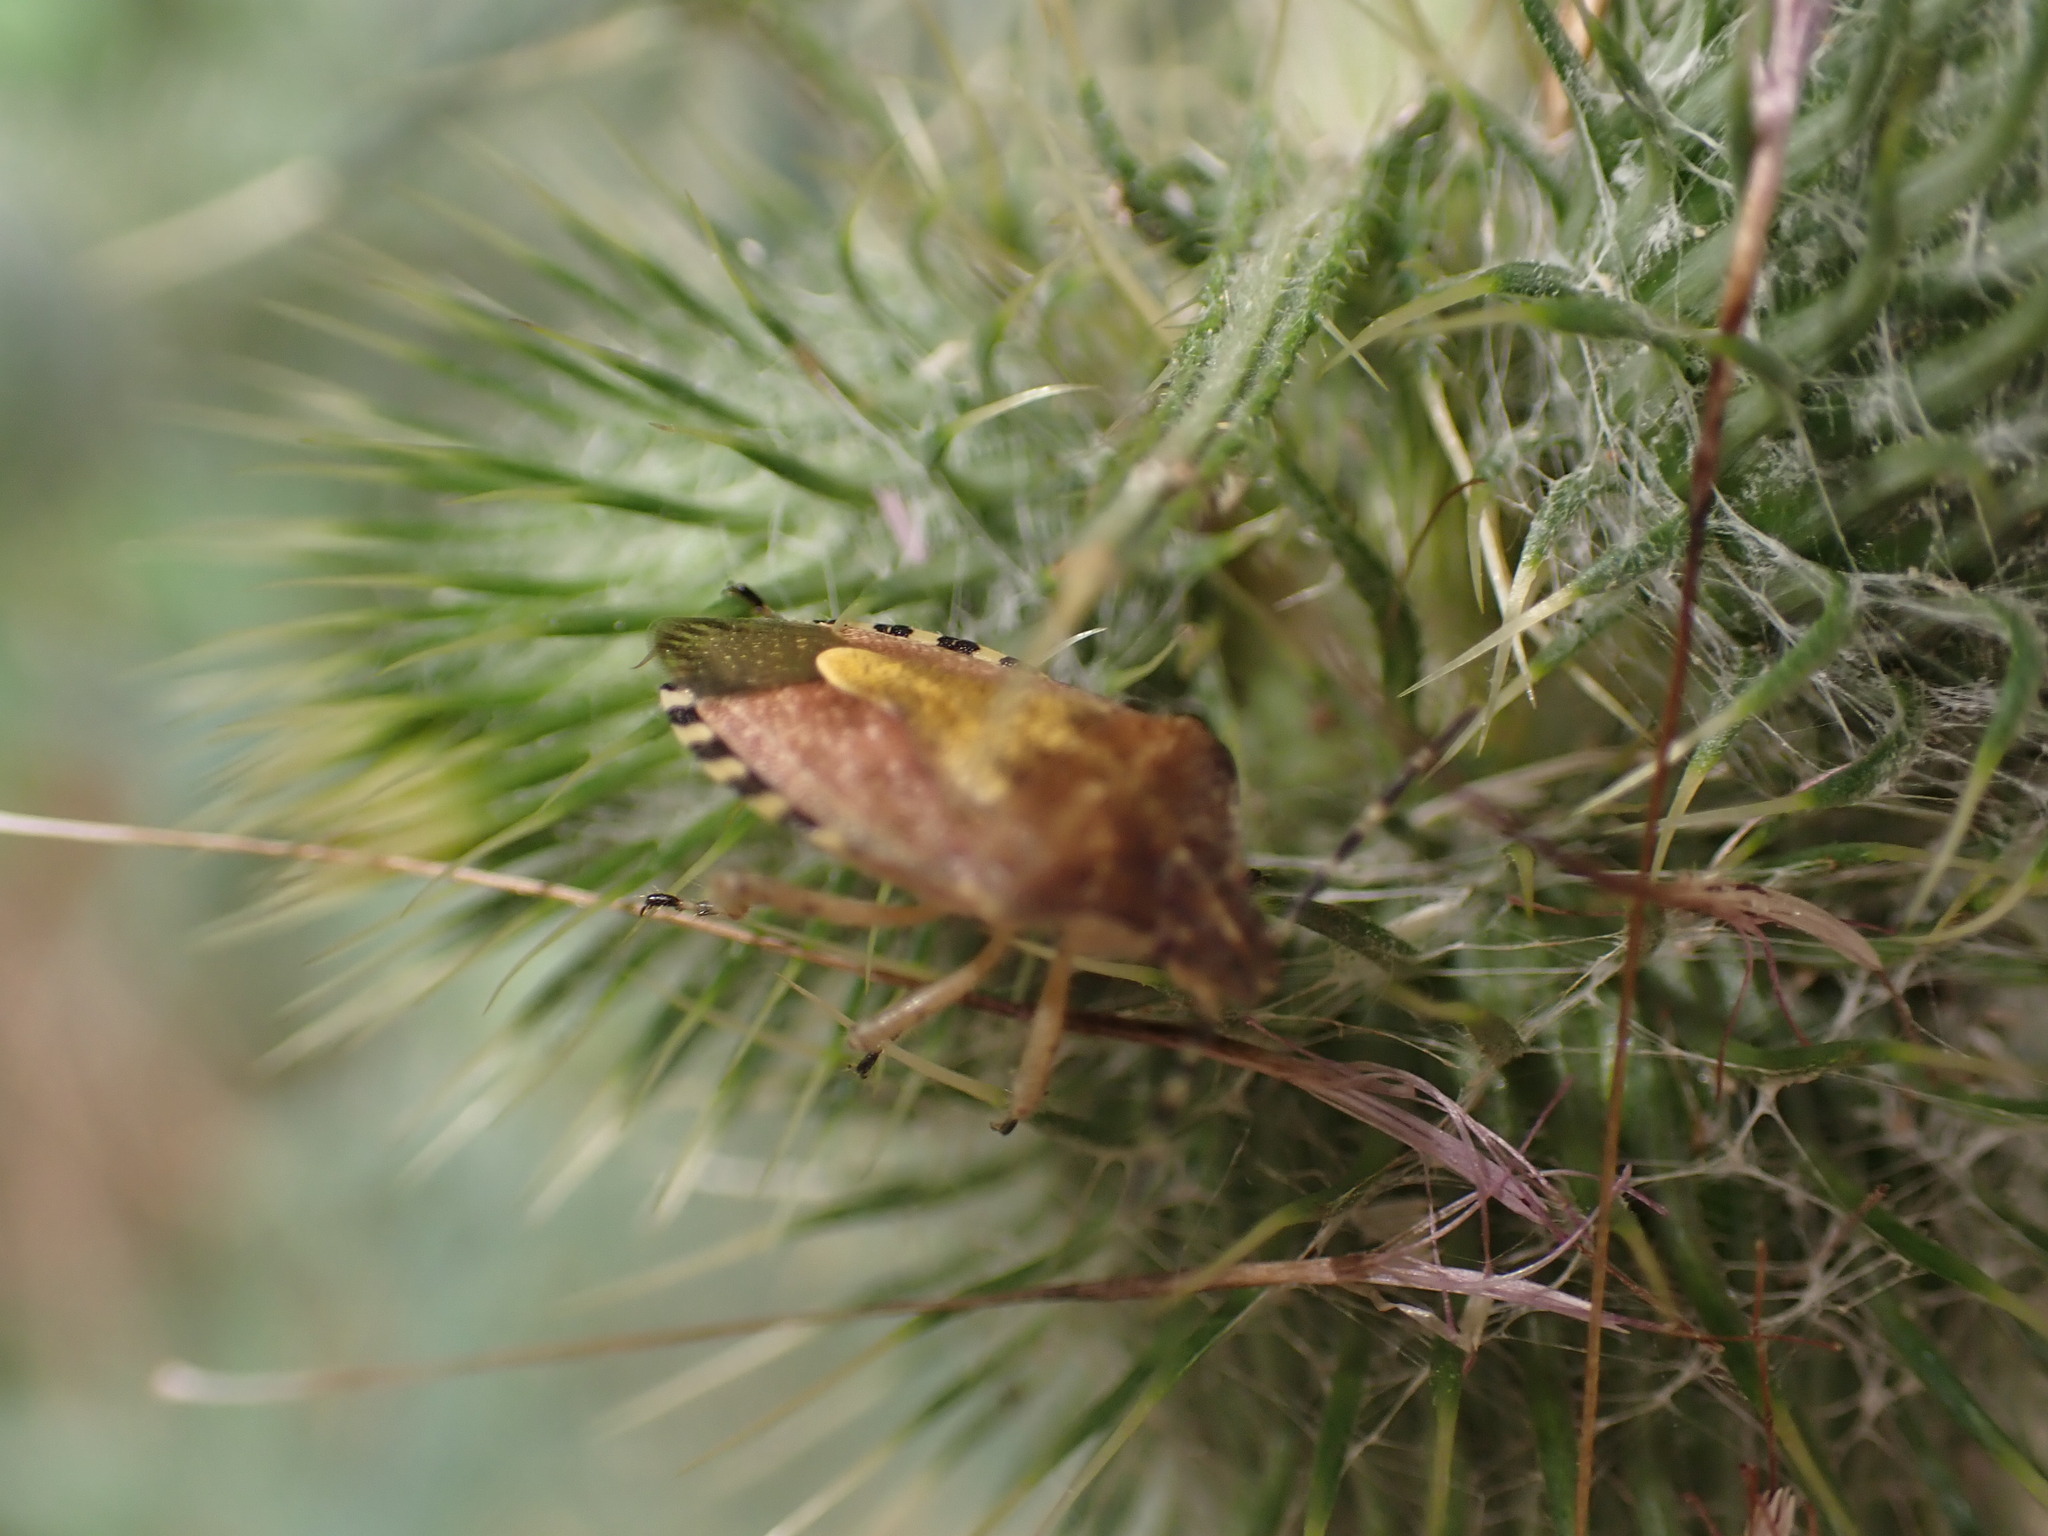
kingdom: Animalia
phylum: Arthropoda
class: Insecta
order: Hemiptera
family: Pentatomidae
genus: Dolycoris
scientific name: Dolycoris baccarum
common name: Sloe bug
